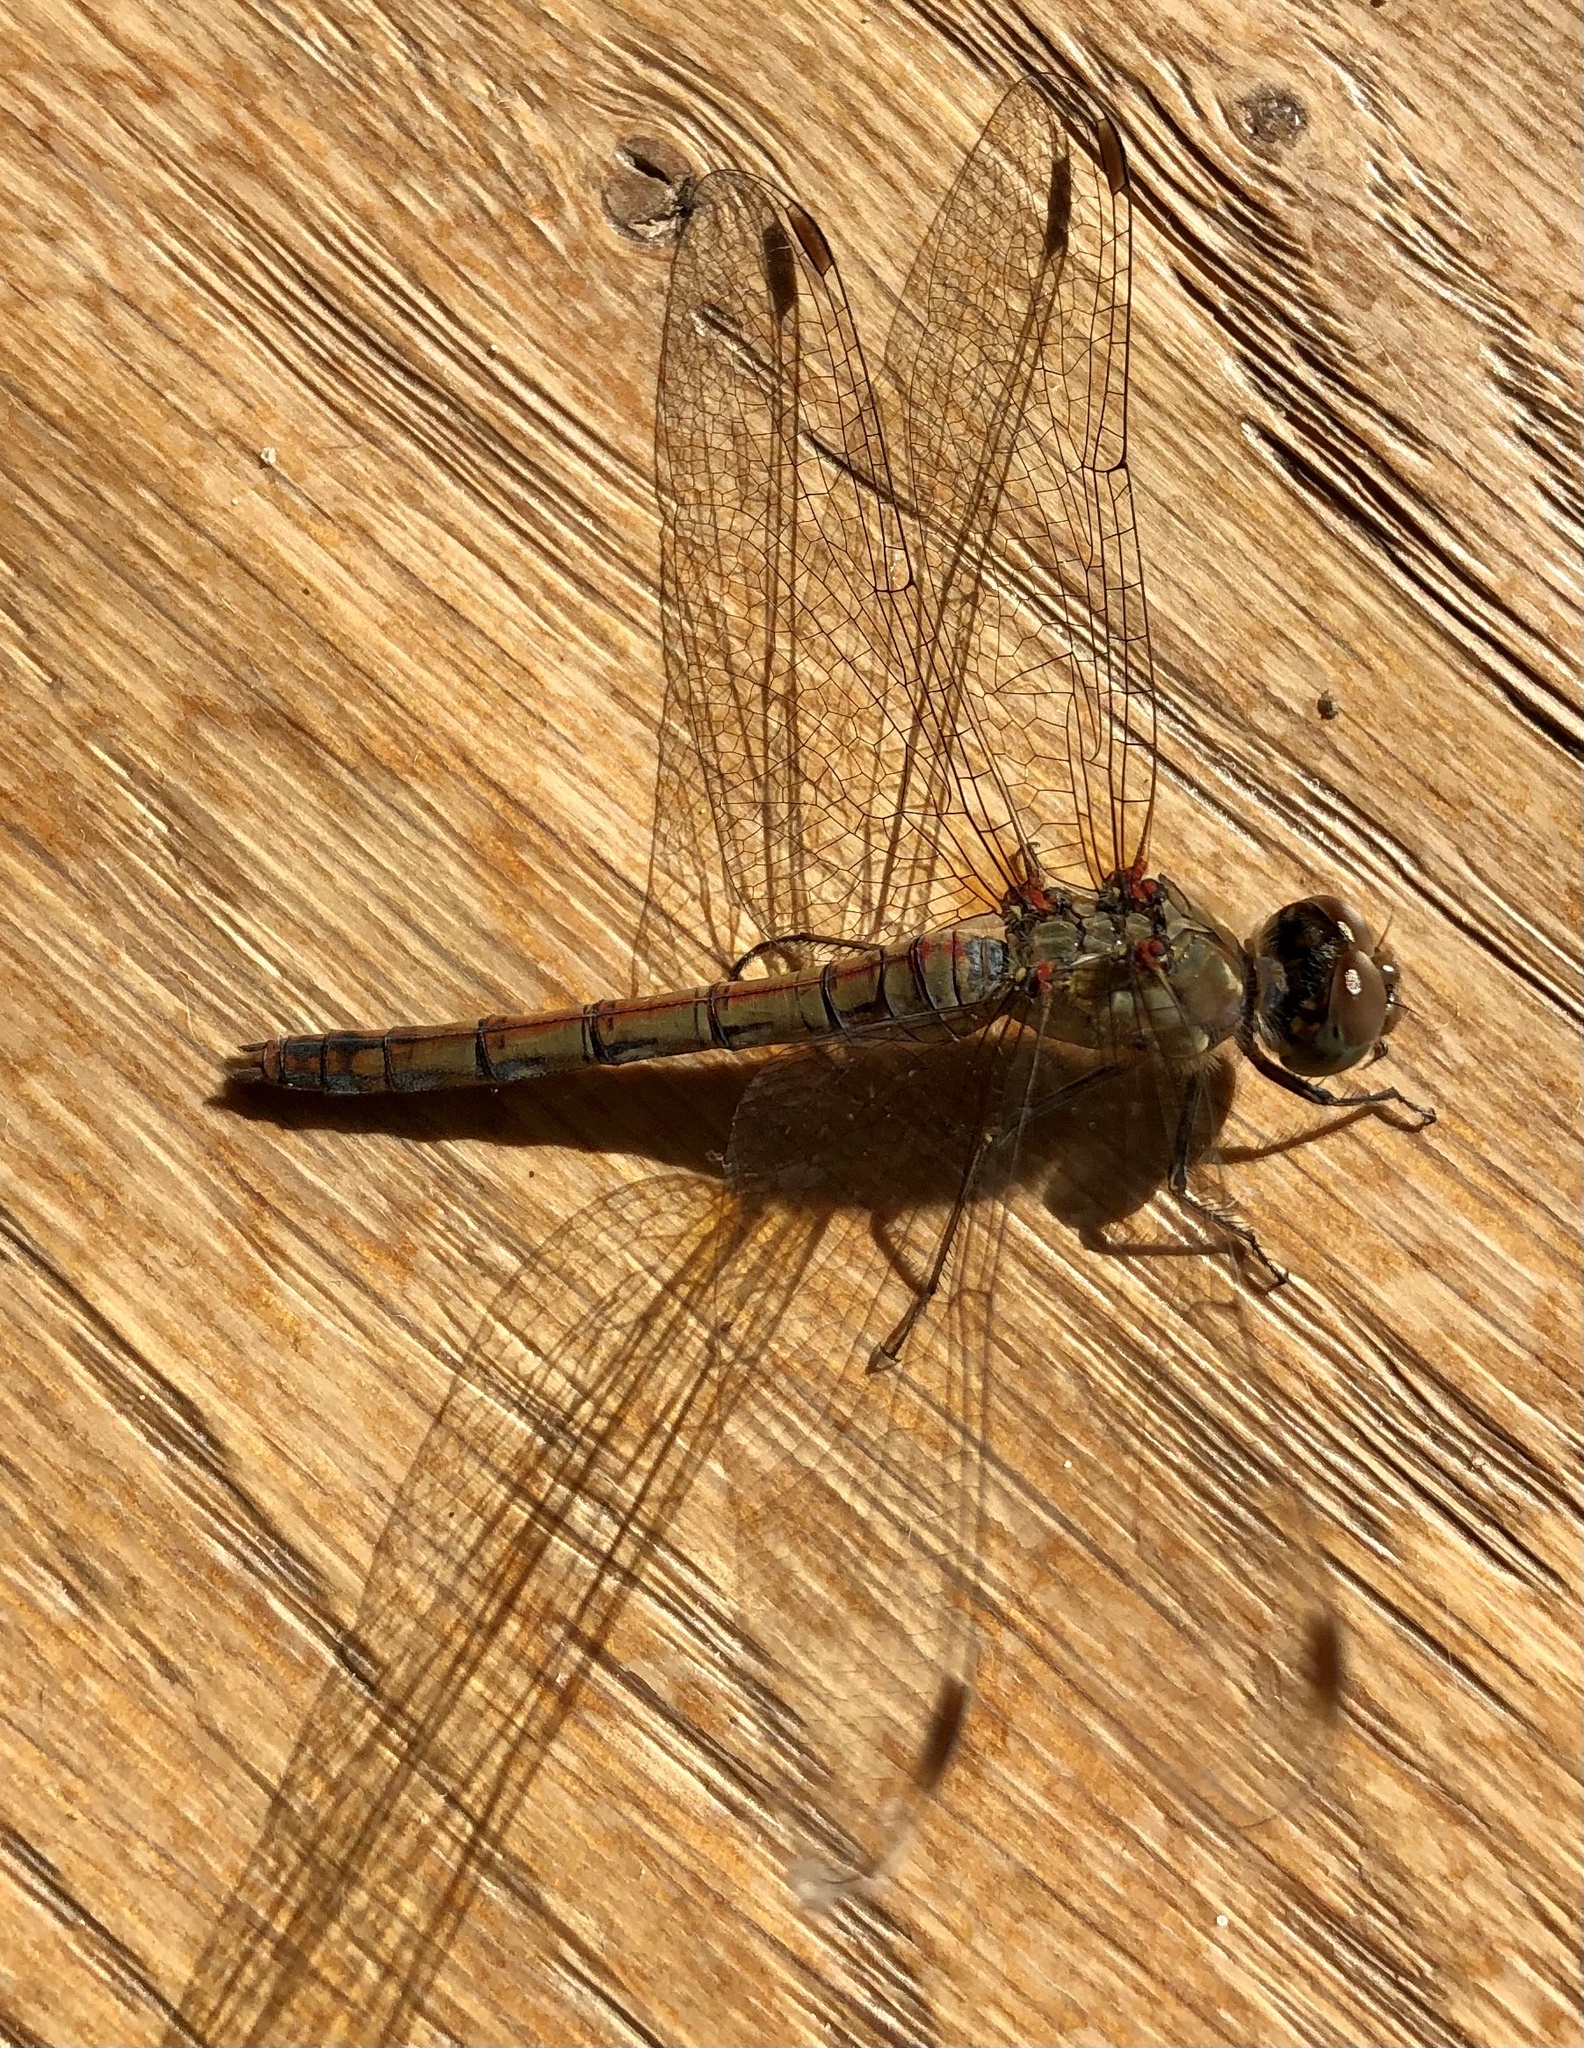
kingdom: Animalia
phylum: Arthropoda
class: Insecta
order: Odonata
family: Libellulidae
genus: Sympetrum
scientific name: Sympetrum striolatum
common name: Common darter
